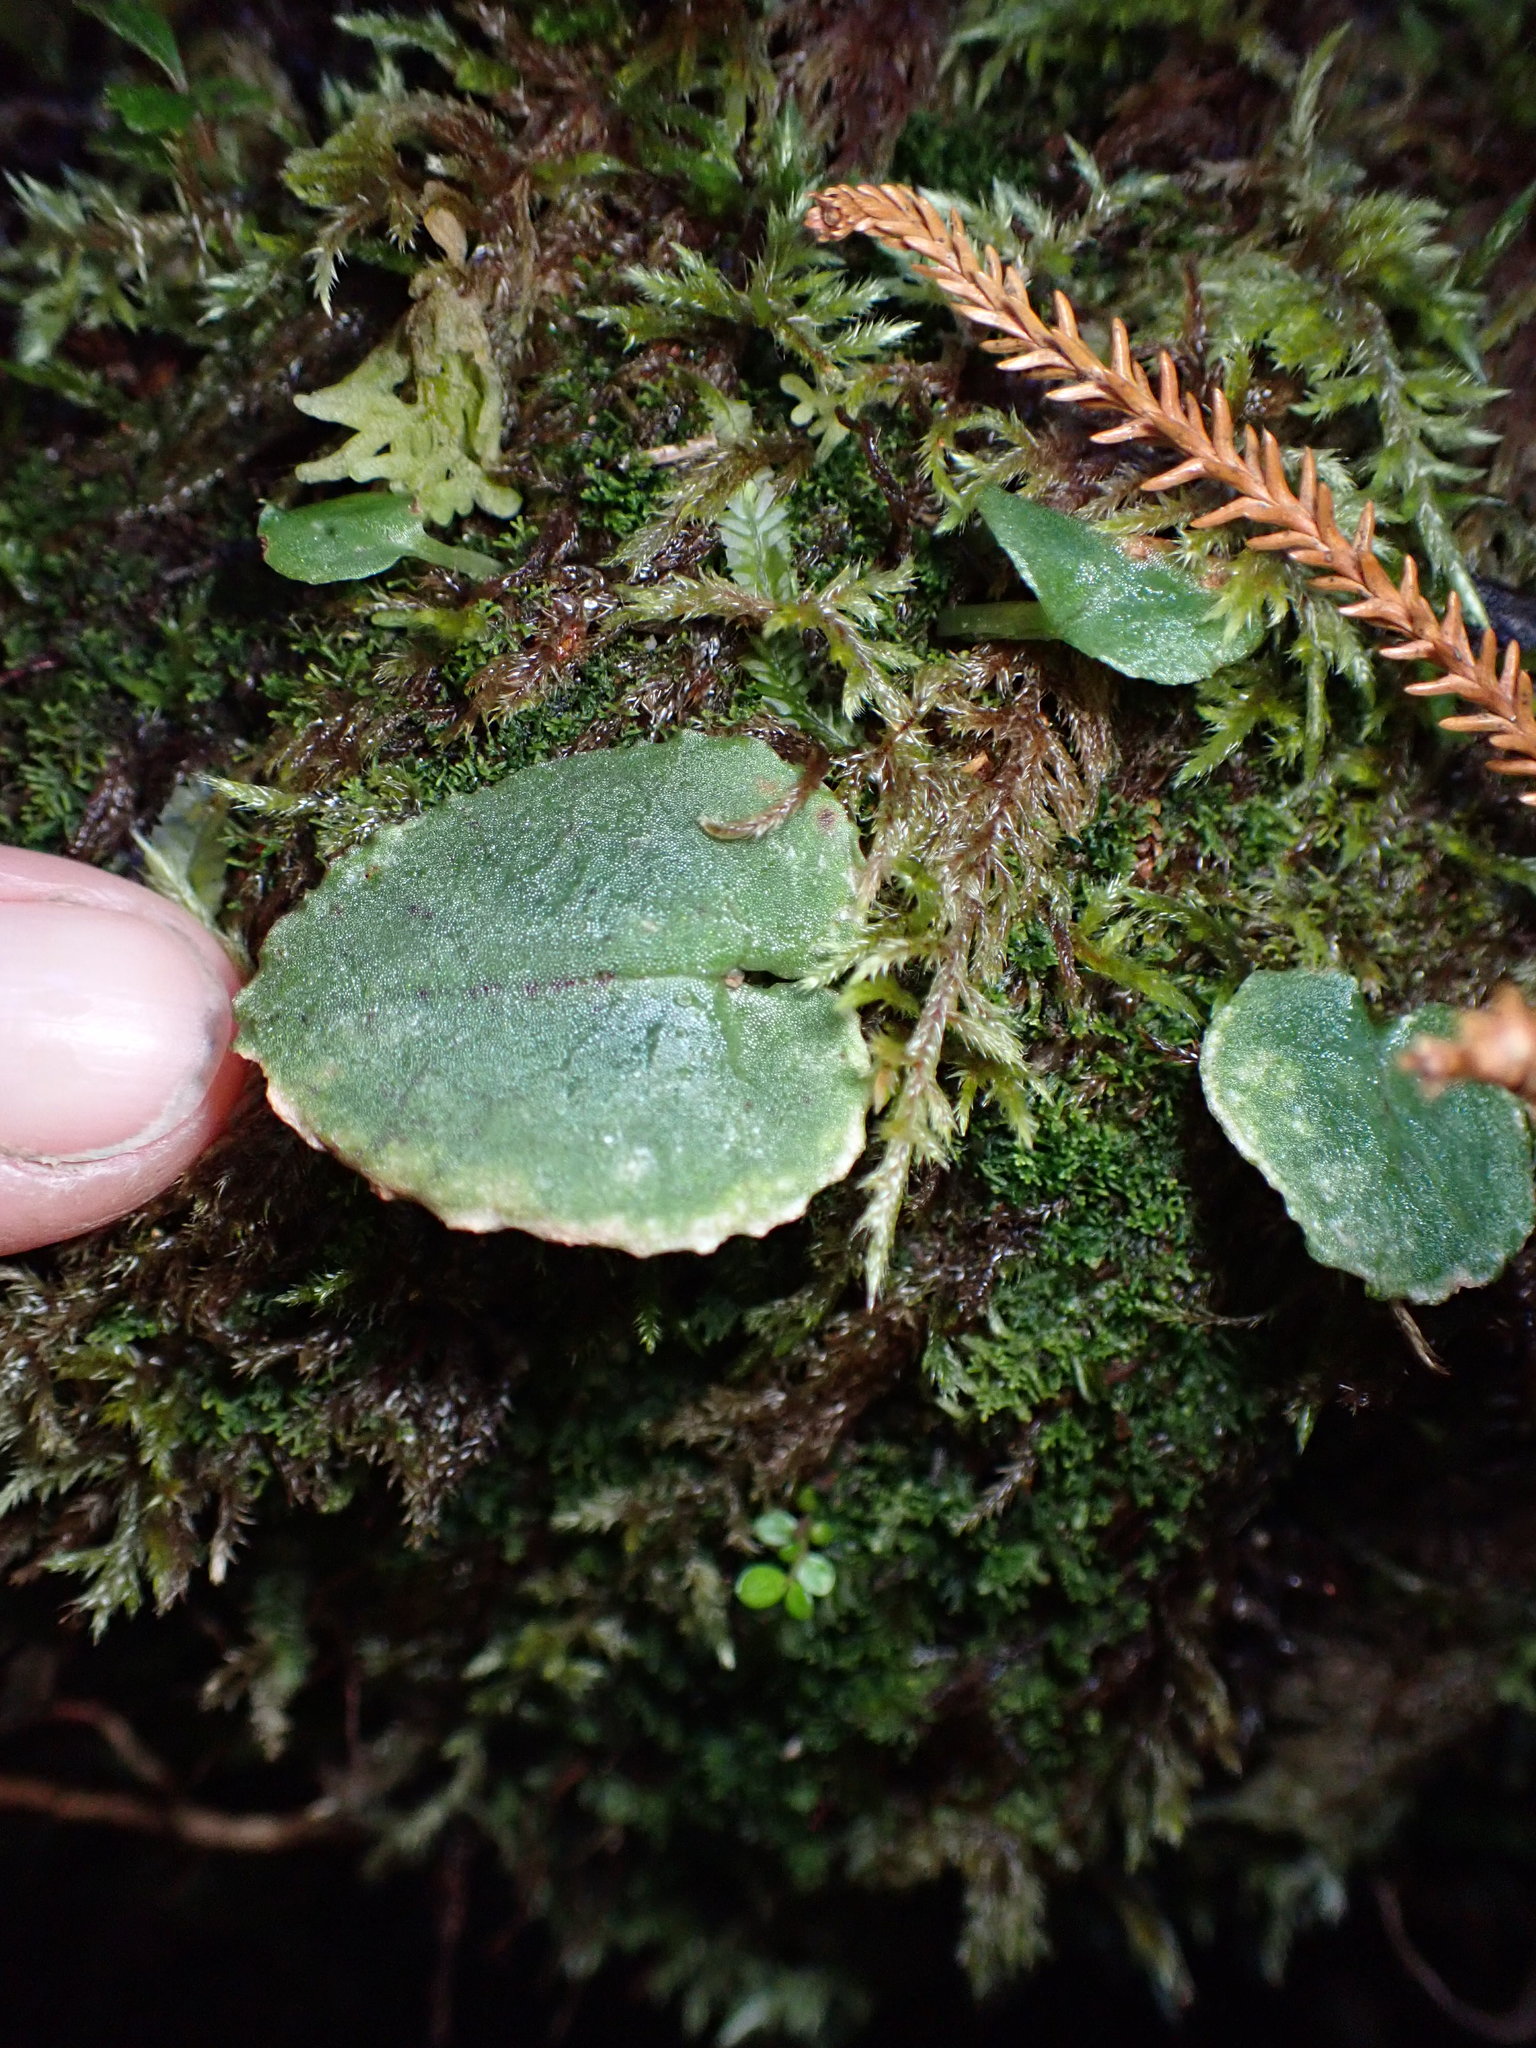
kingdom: Plantae
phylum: Tracheophyta
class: Liliopsida
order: Asparagales
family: Orchidaceae
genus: Corybas
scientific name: Corybas oblongus
